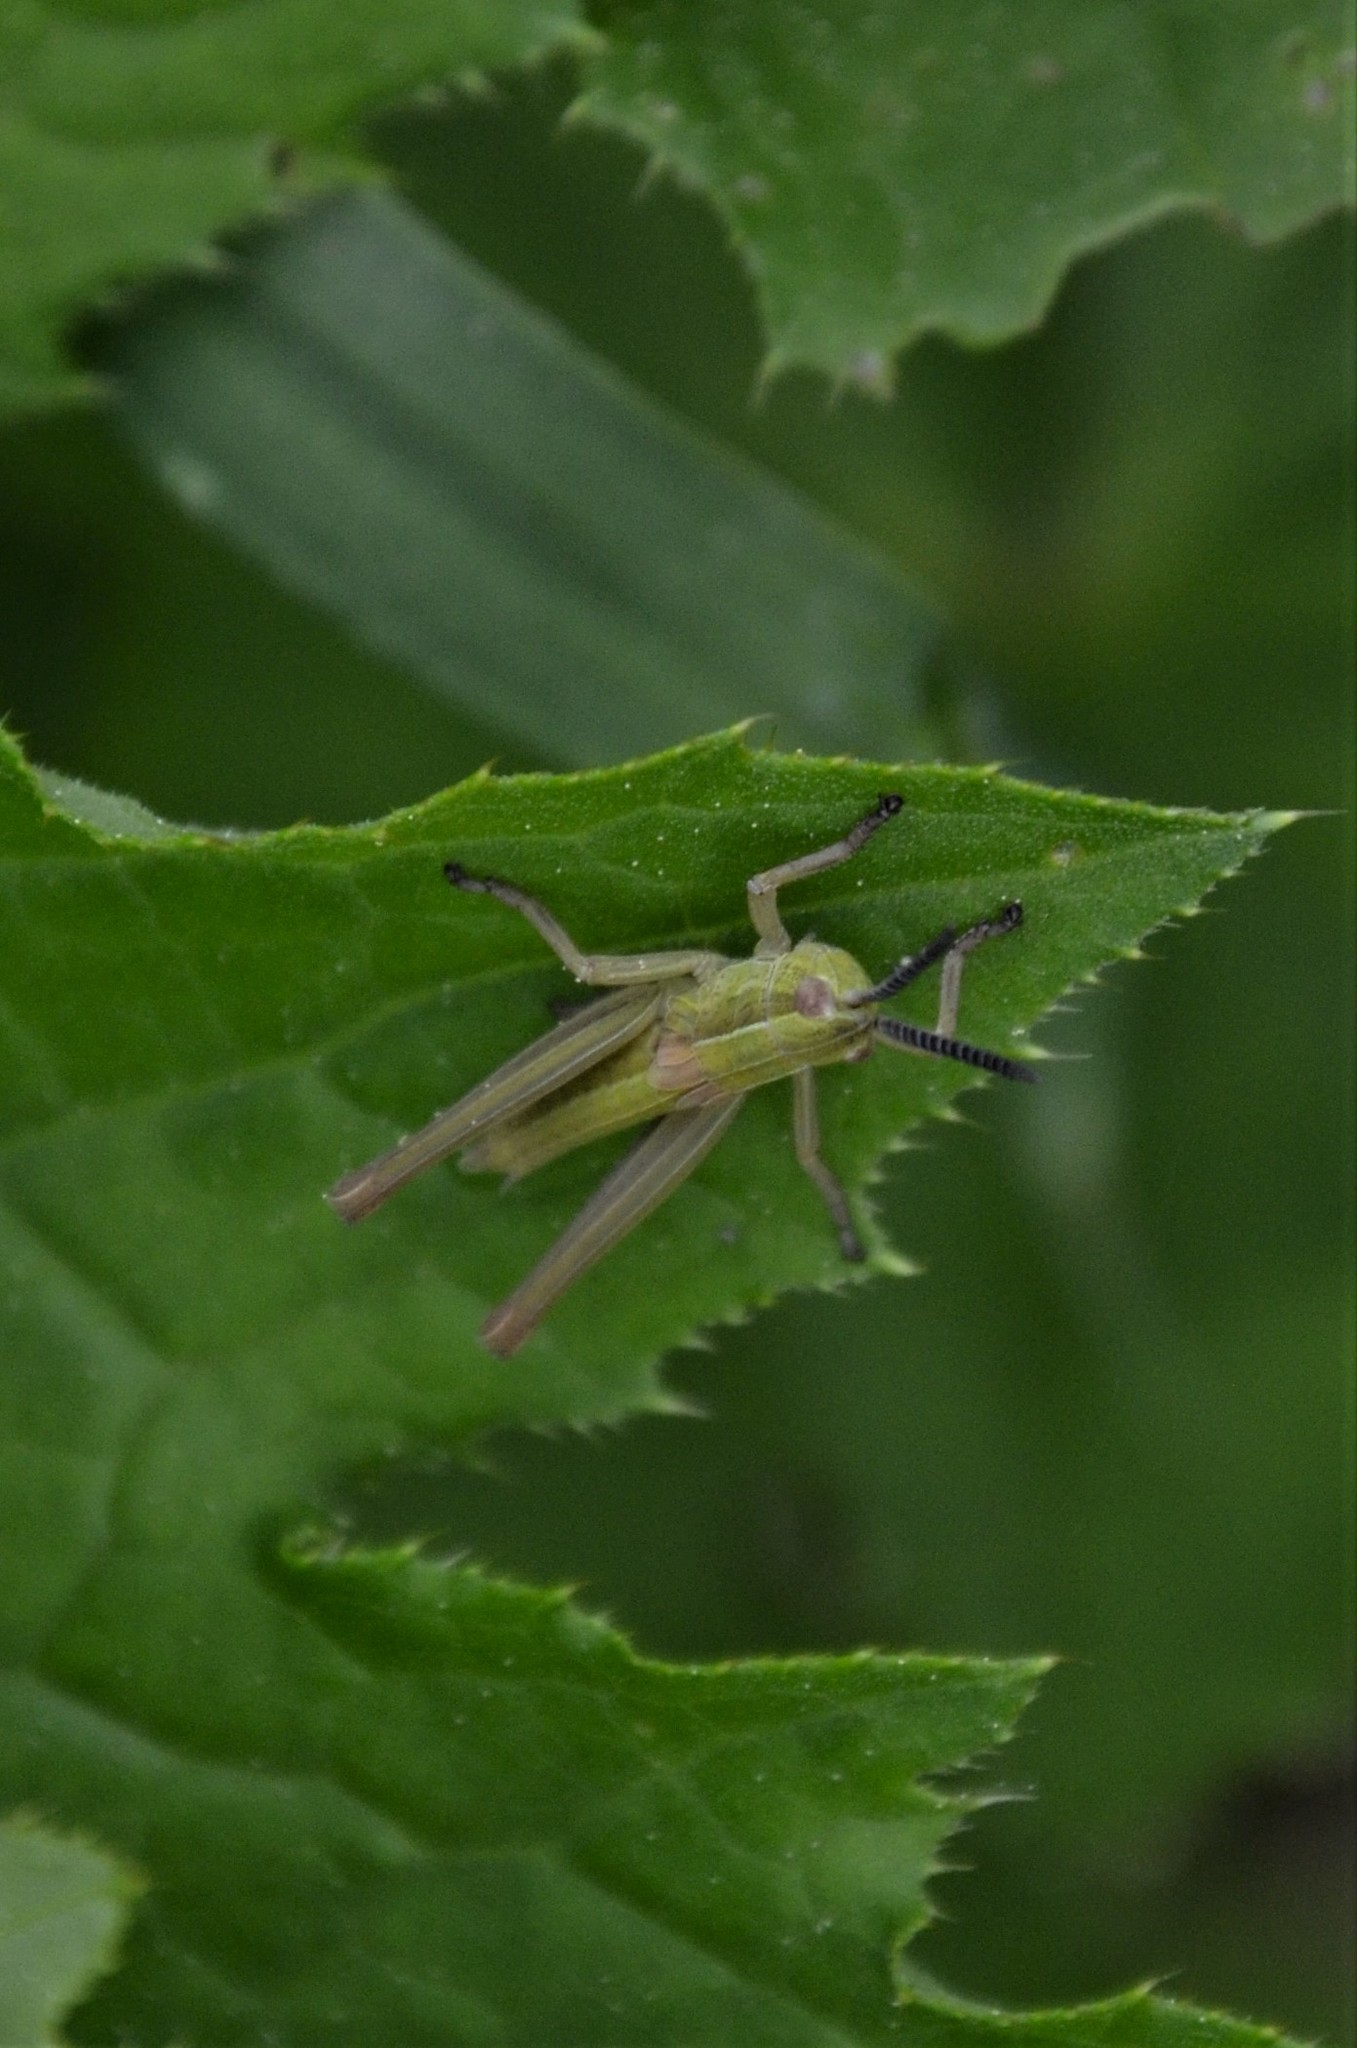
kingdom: Animalia
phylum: Arthropoda
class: Insecta
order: Orthoptera
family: Acrididae
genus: Euthystira
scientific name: Euthystira brachyptera
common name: Small gold grasshopper
